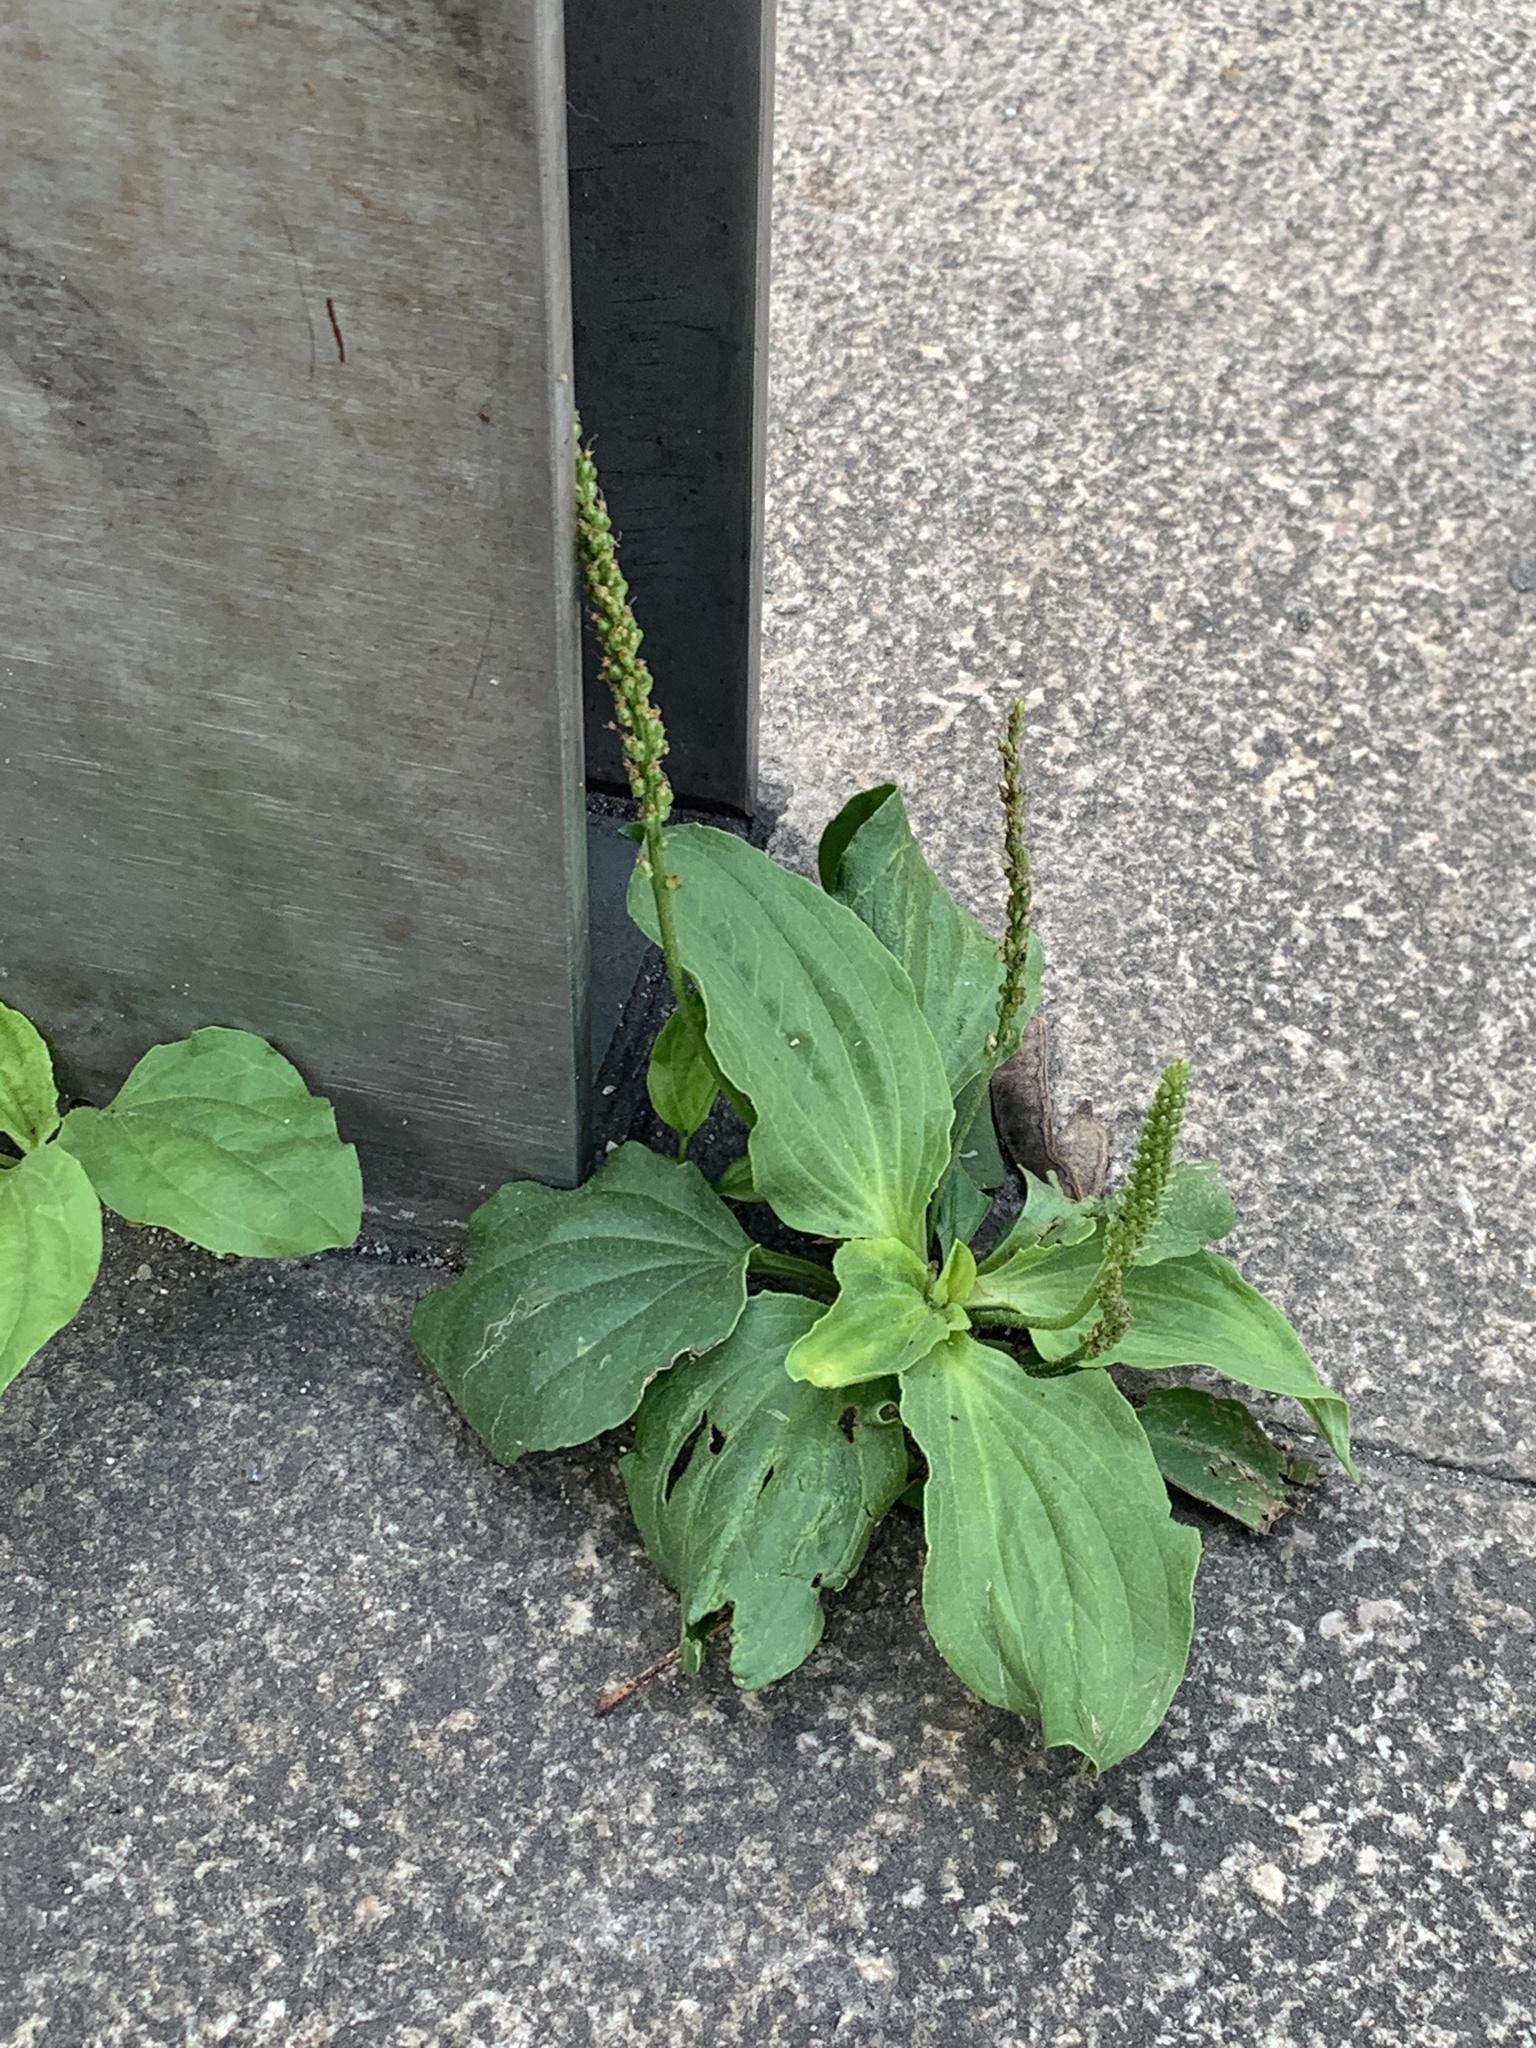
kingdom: Plantae
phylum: Tracheophyta
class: Magnoliopsida
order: Lamiales
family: Plantaginaceae
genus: Plantago
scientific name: Plantago major
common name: Common plantain
